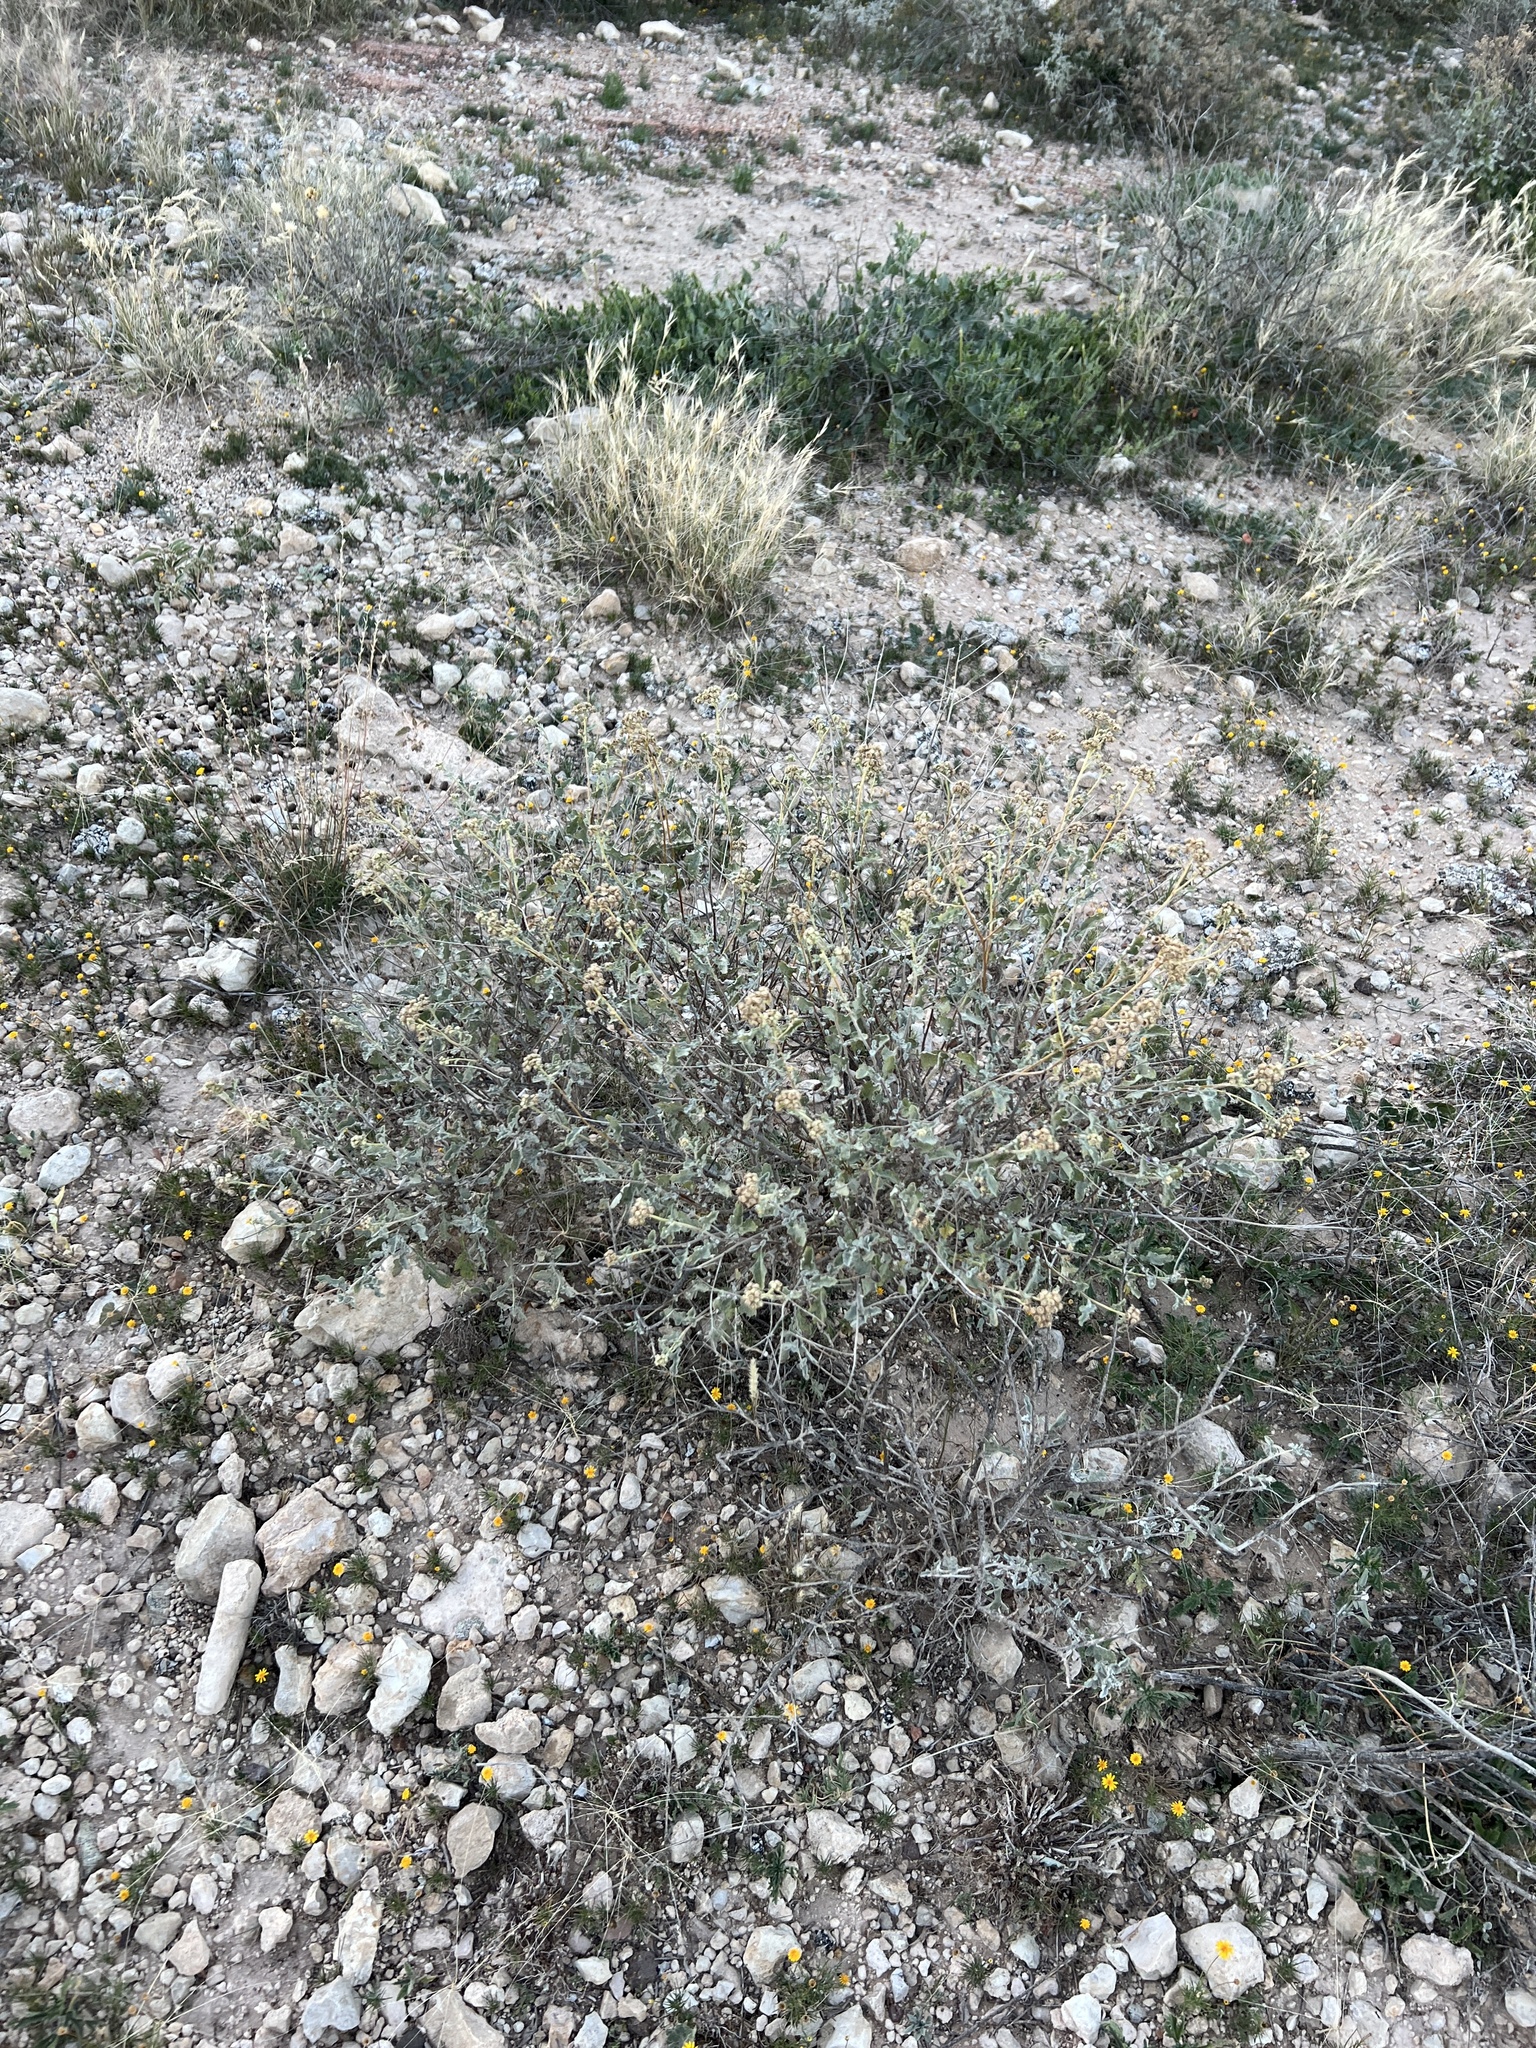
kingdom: Plantae
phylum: Tracheophyta
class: Magnoliopsida
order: Asterales
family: Asteraceae
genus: Parthenium
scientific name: Parthenium incanum
